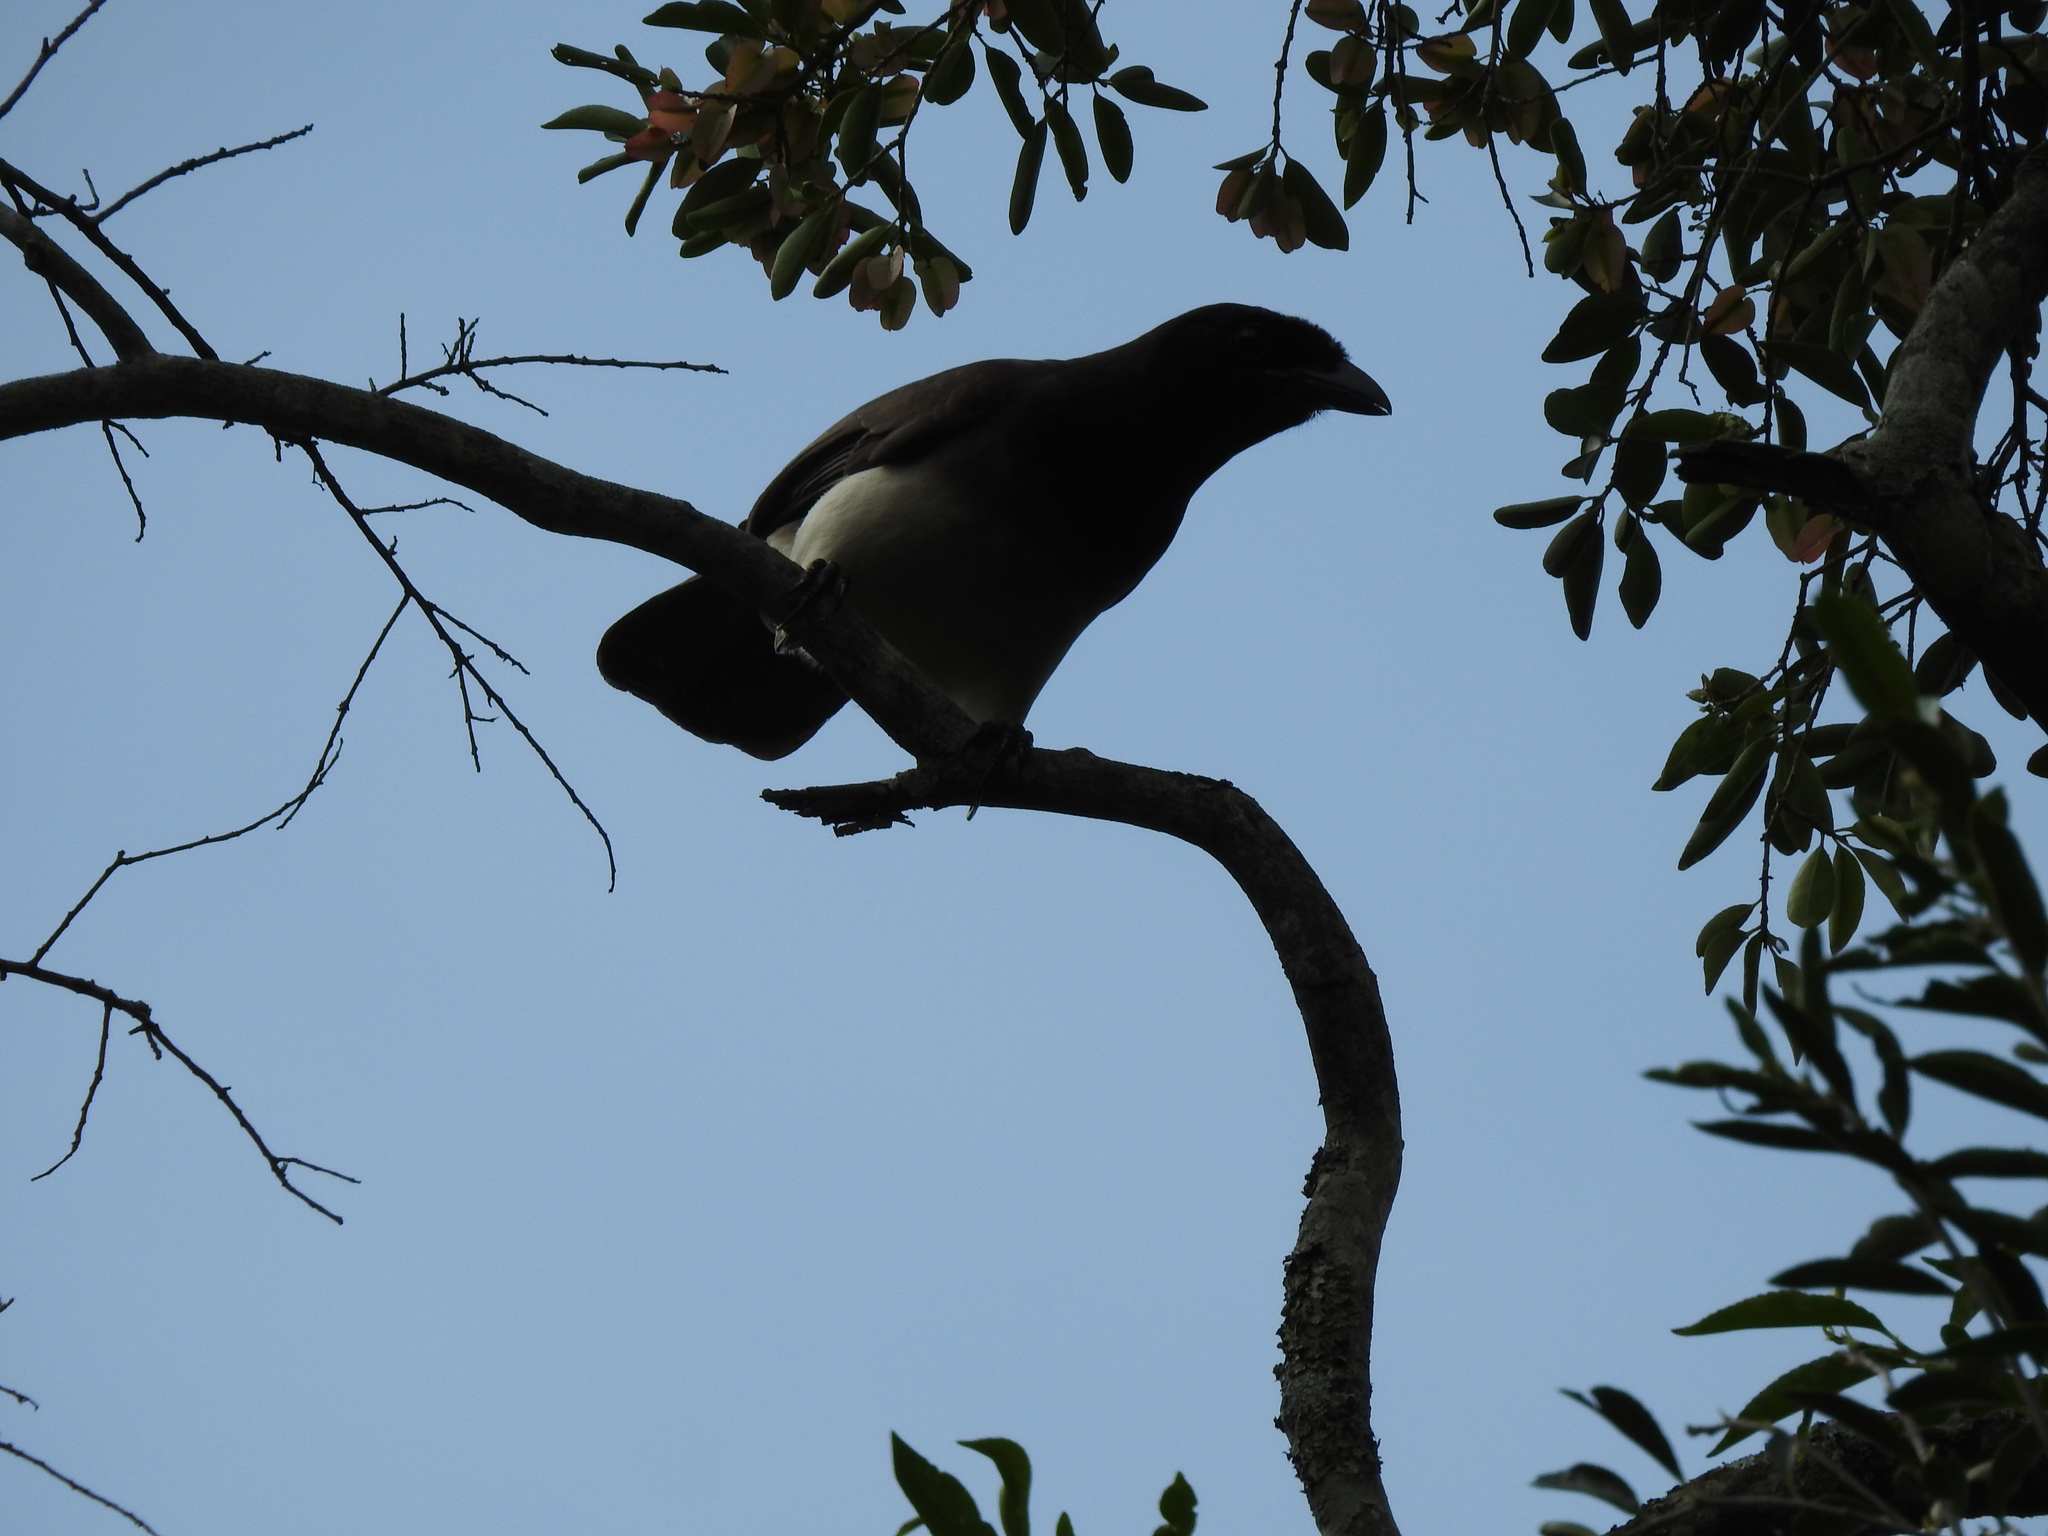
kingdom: Animalia
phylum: Chordata
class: Aves
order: Passeriformes
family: Corvidae
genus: Psilorhinus
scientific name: Psilorhinus morio
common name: Brown jay
